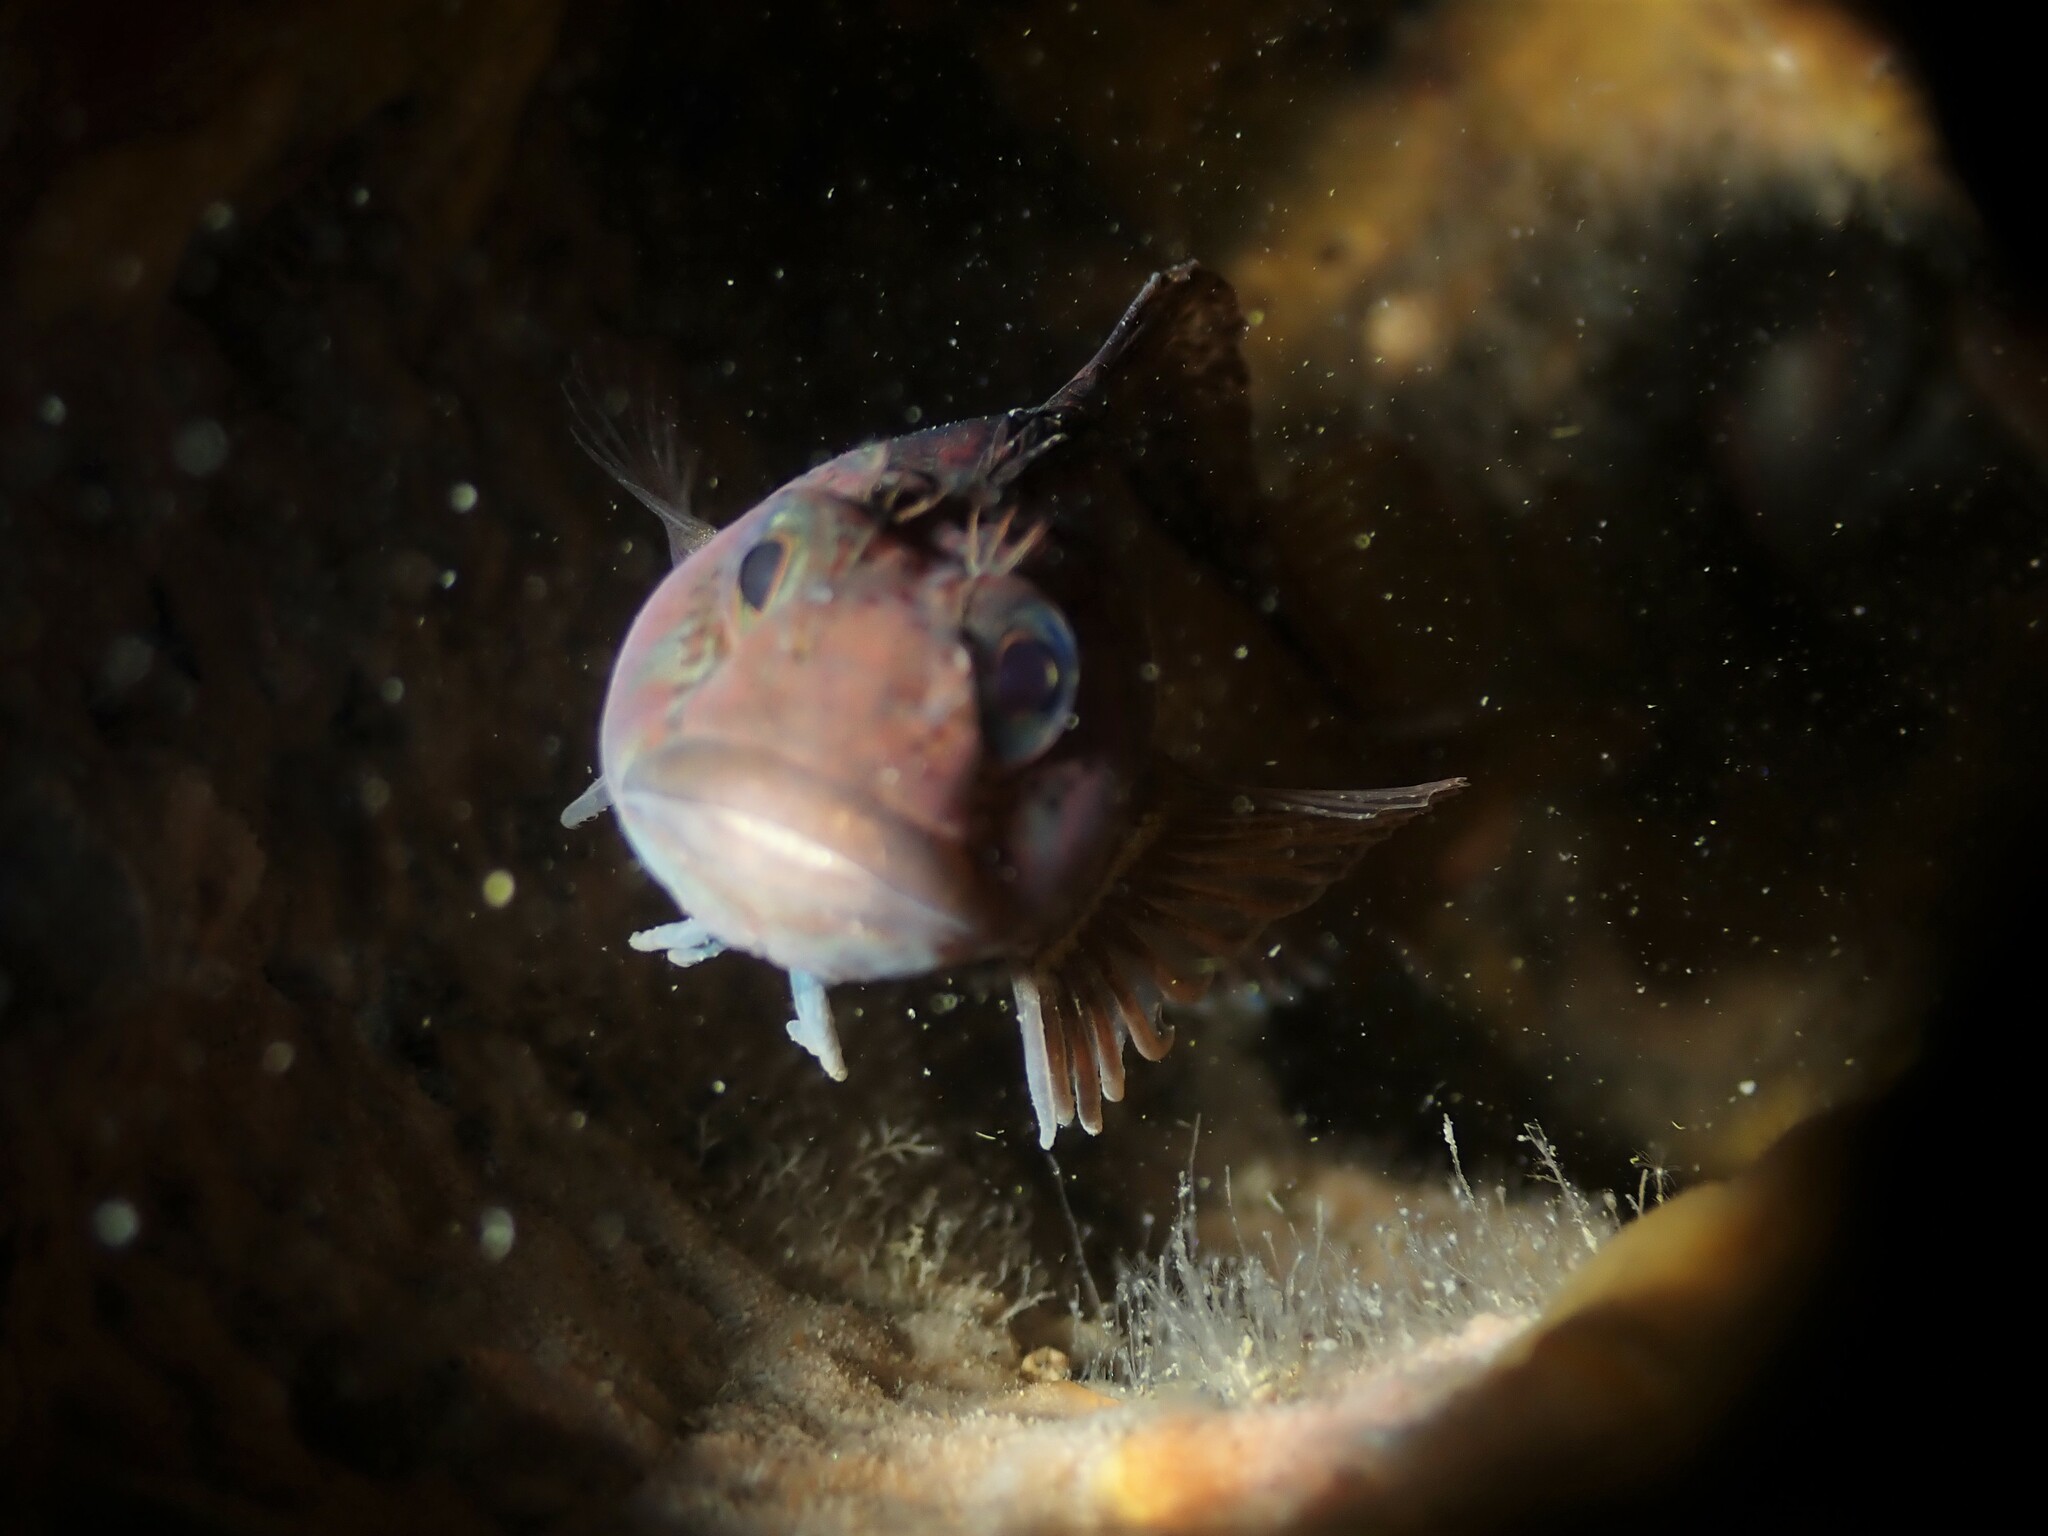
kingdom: Animalia
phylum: Chordata
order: Perciformes
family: Tripterygiidae
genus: Forsterygion
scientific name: Forsterygion gymnotum
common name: Multifid-tentacled robust triplefin
